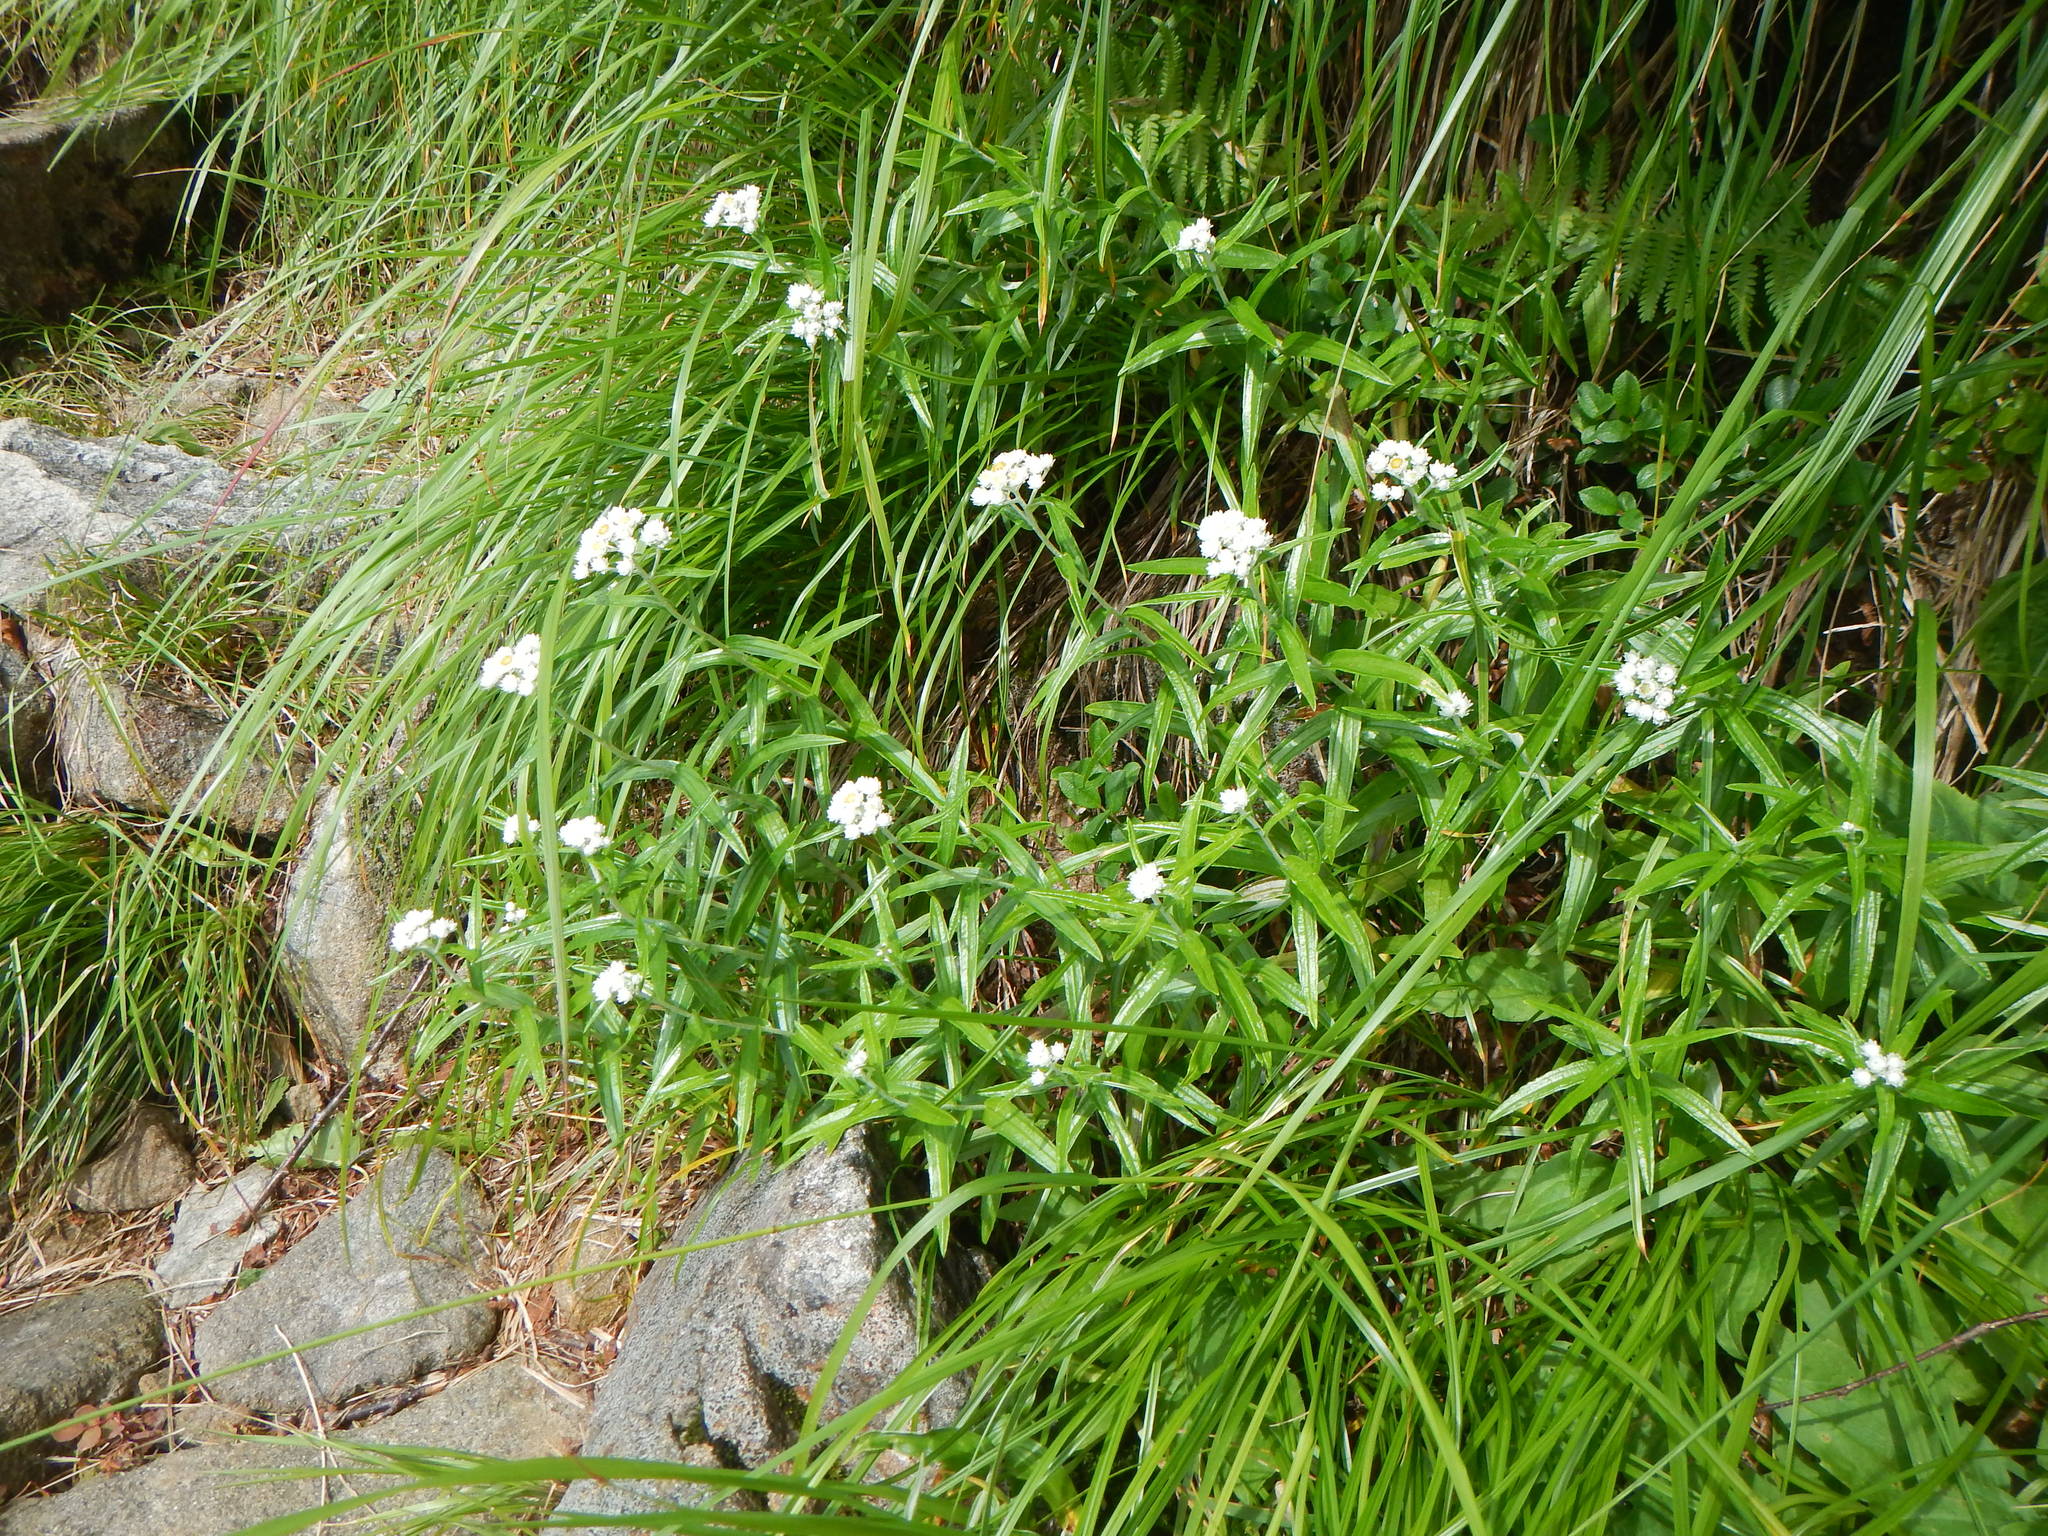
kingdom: Plantae
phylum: Tracheophyta
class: Magnoliopsida
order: Asterales
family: Asteraceae
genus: Anaphalis
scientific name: Anaphalis margaritacea
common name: Pearly everlasting
